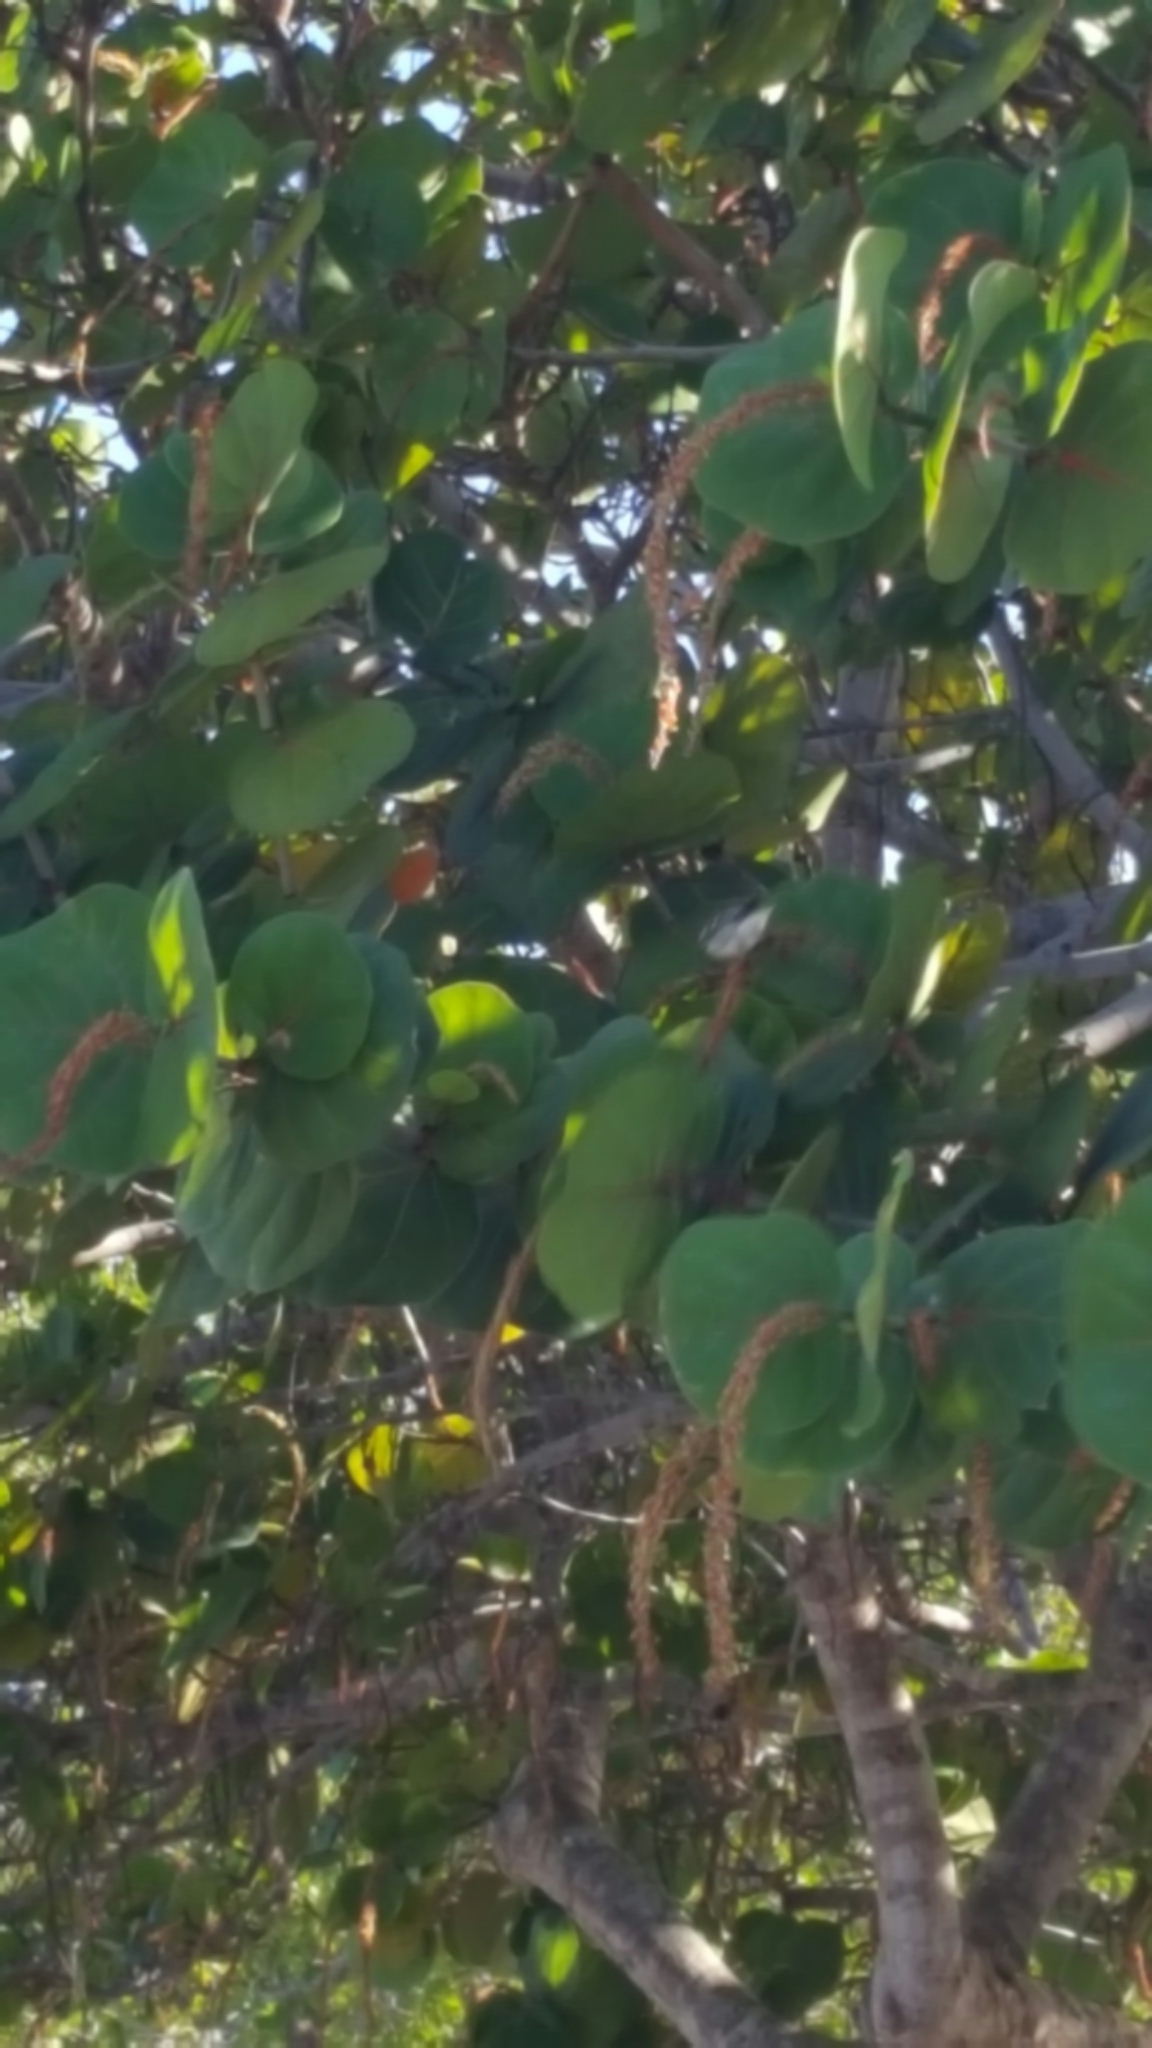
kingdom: Animalia
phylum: Chordata
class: Aves
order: Passeriformes
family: Parulidae
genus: Setophaga
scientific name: Setophaga striata
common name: Blackpoll warbler
